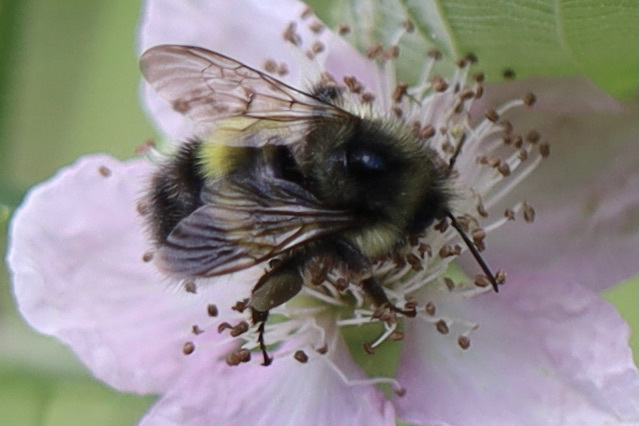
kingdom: Animalia
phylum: Arthropoda
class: Insecta
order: Hymenoptera
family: Apidae
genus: Bombus
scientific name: Bombus flavifrons
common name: Yellow head bumble bee
